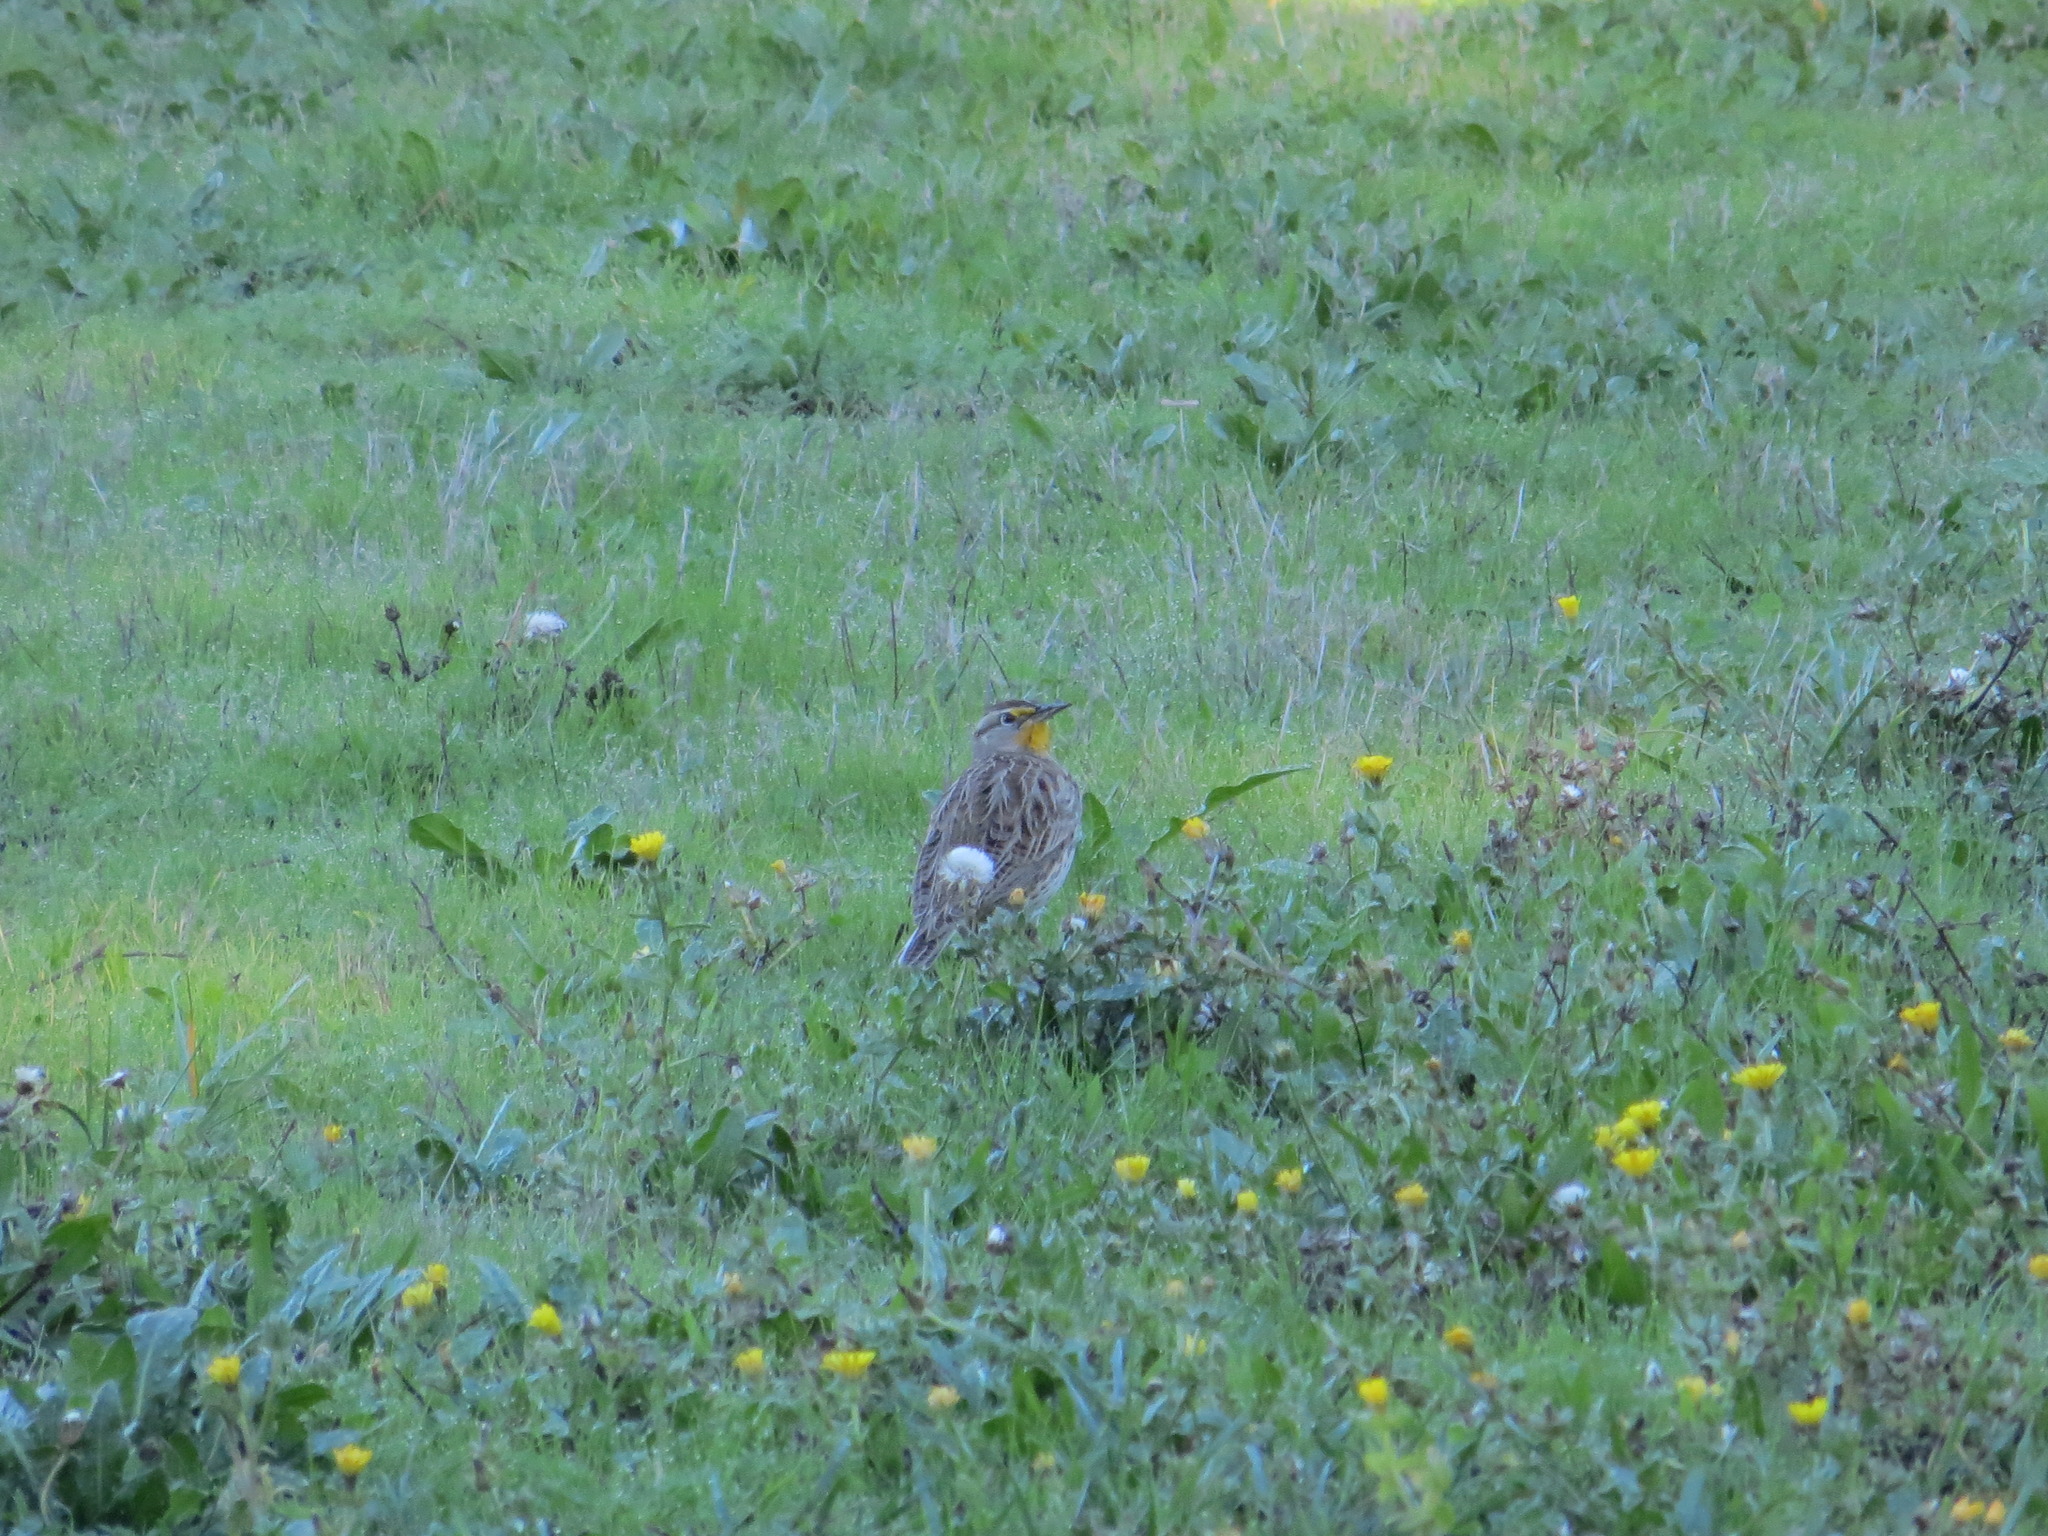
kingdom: Animalia
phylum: Chordata
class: Aves
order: Passeriformes
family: Icteridae
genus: Sturnella
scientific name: Sturnella neglecta
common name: Western meadowlark
